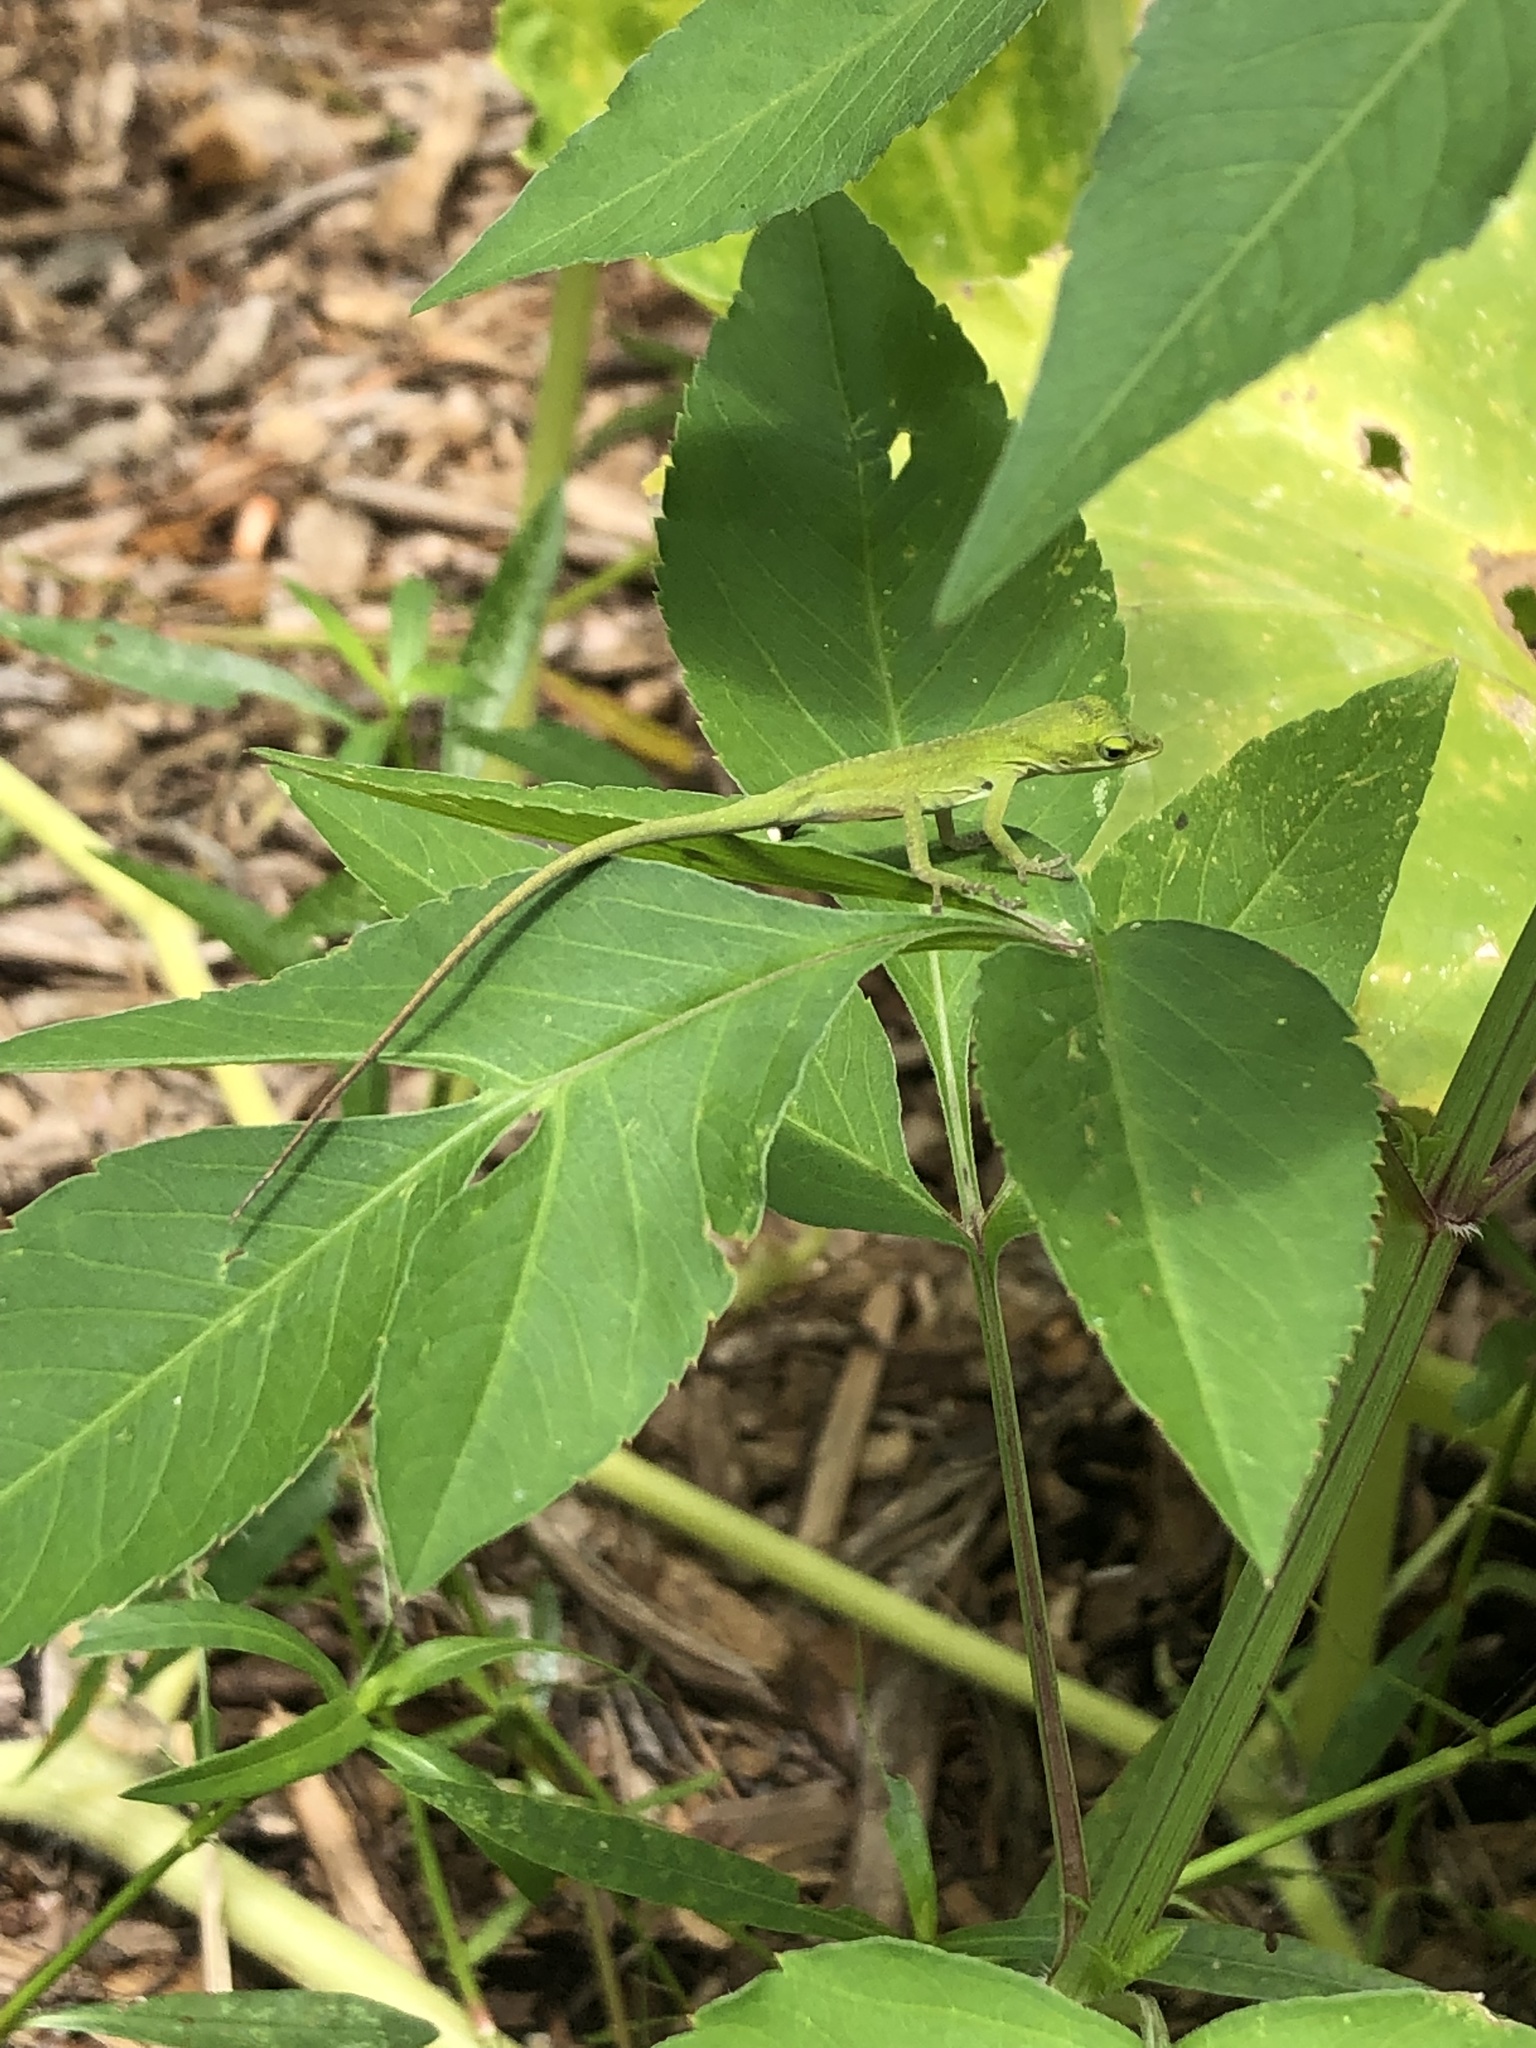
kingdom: Animalia
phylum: Chordata
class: Squamata
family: Dactyloidae
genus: Anolis
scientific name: Anolis carolinensis
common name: Green anole
